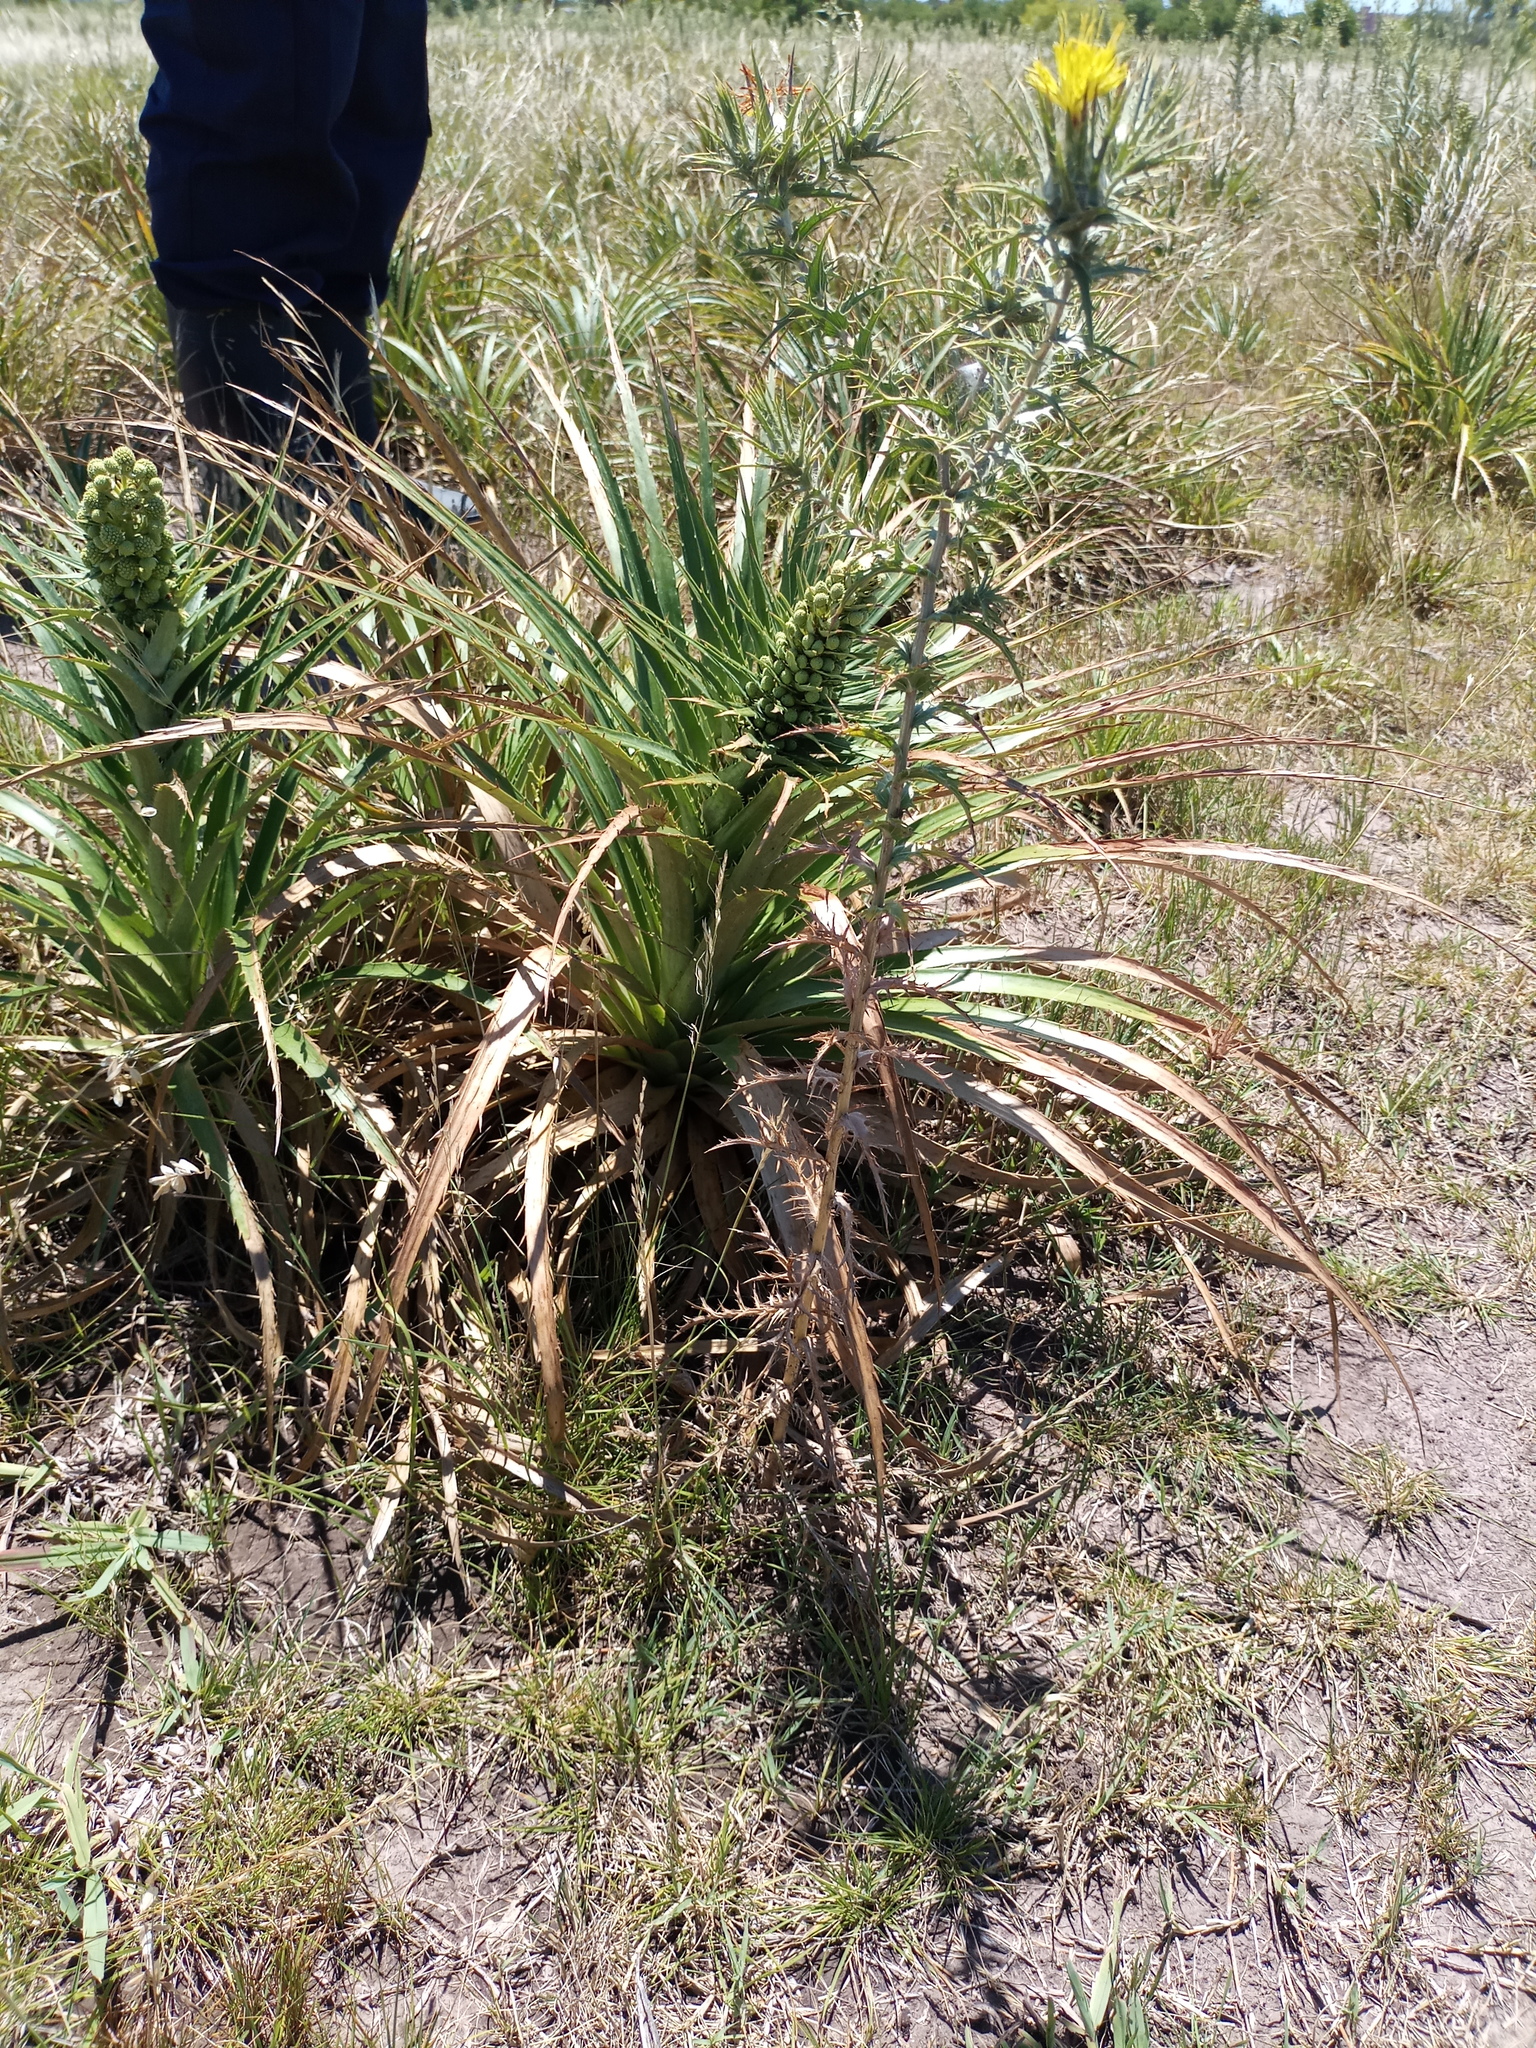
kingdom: Plantae
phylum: Tracheophyta
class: Magnoliopsida
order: Asterales
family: Asteraceae
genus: Centaurea
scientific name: Centaurea solstitialis
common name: Yellow star-thistle
